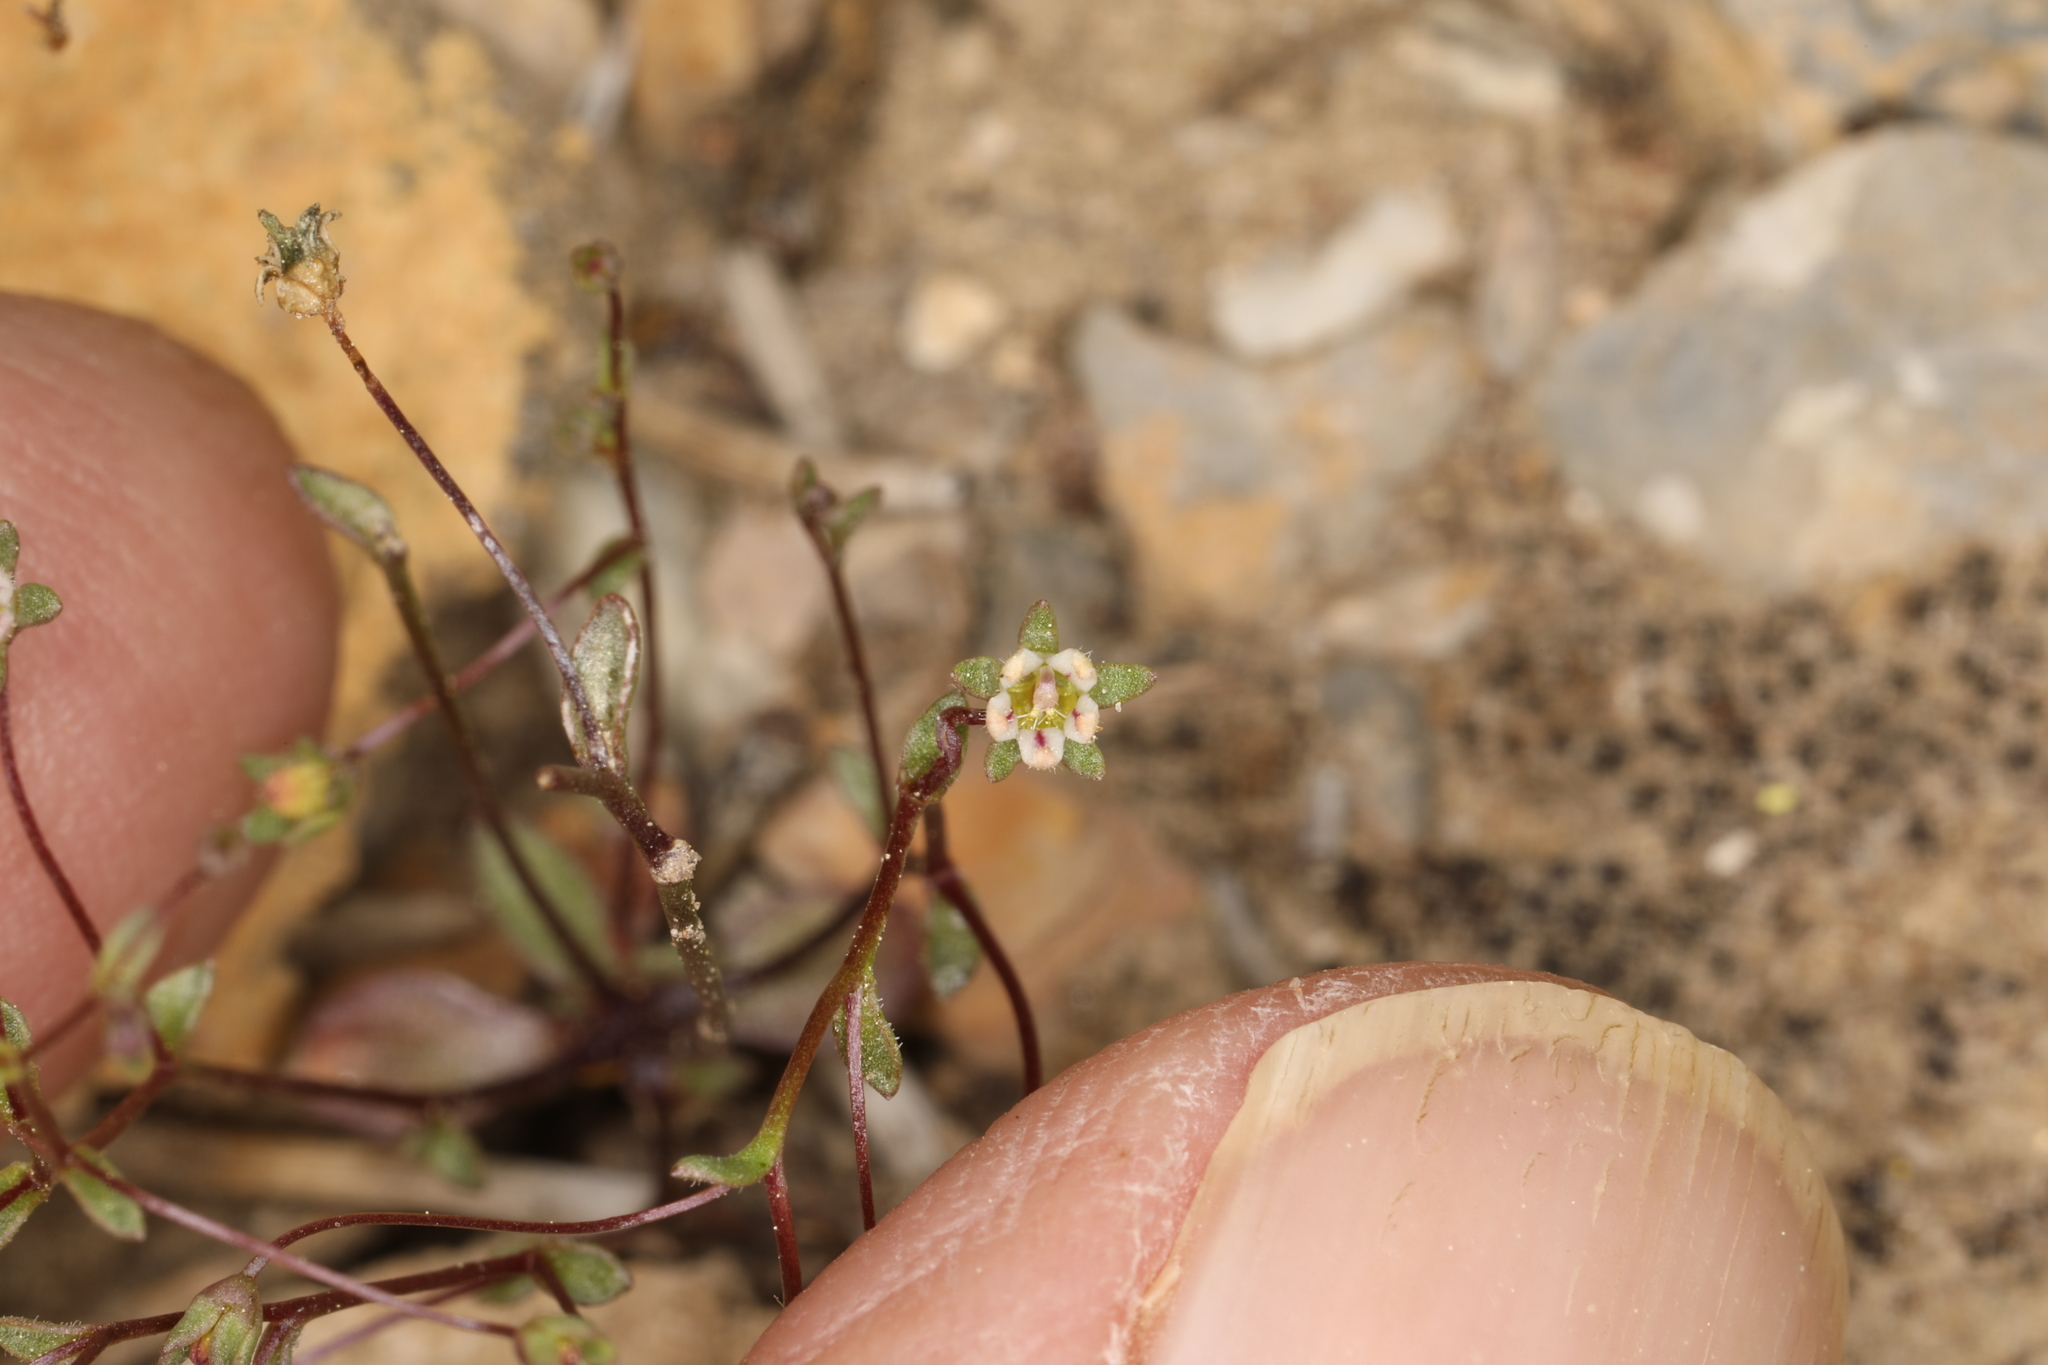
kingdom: Plantae
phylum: Tracheophyta
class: Magnoliopsida
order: Asterales
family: Campanulaceae
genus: Nemacladus
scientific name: Nemacladus inyoensis
